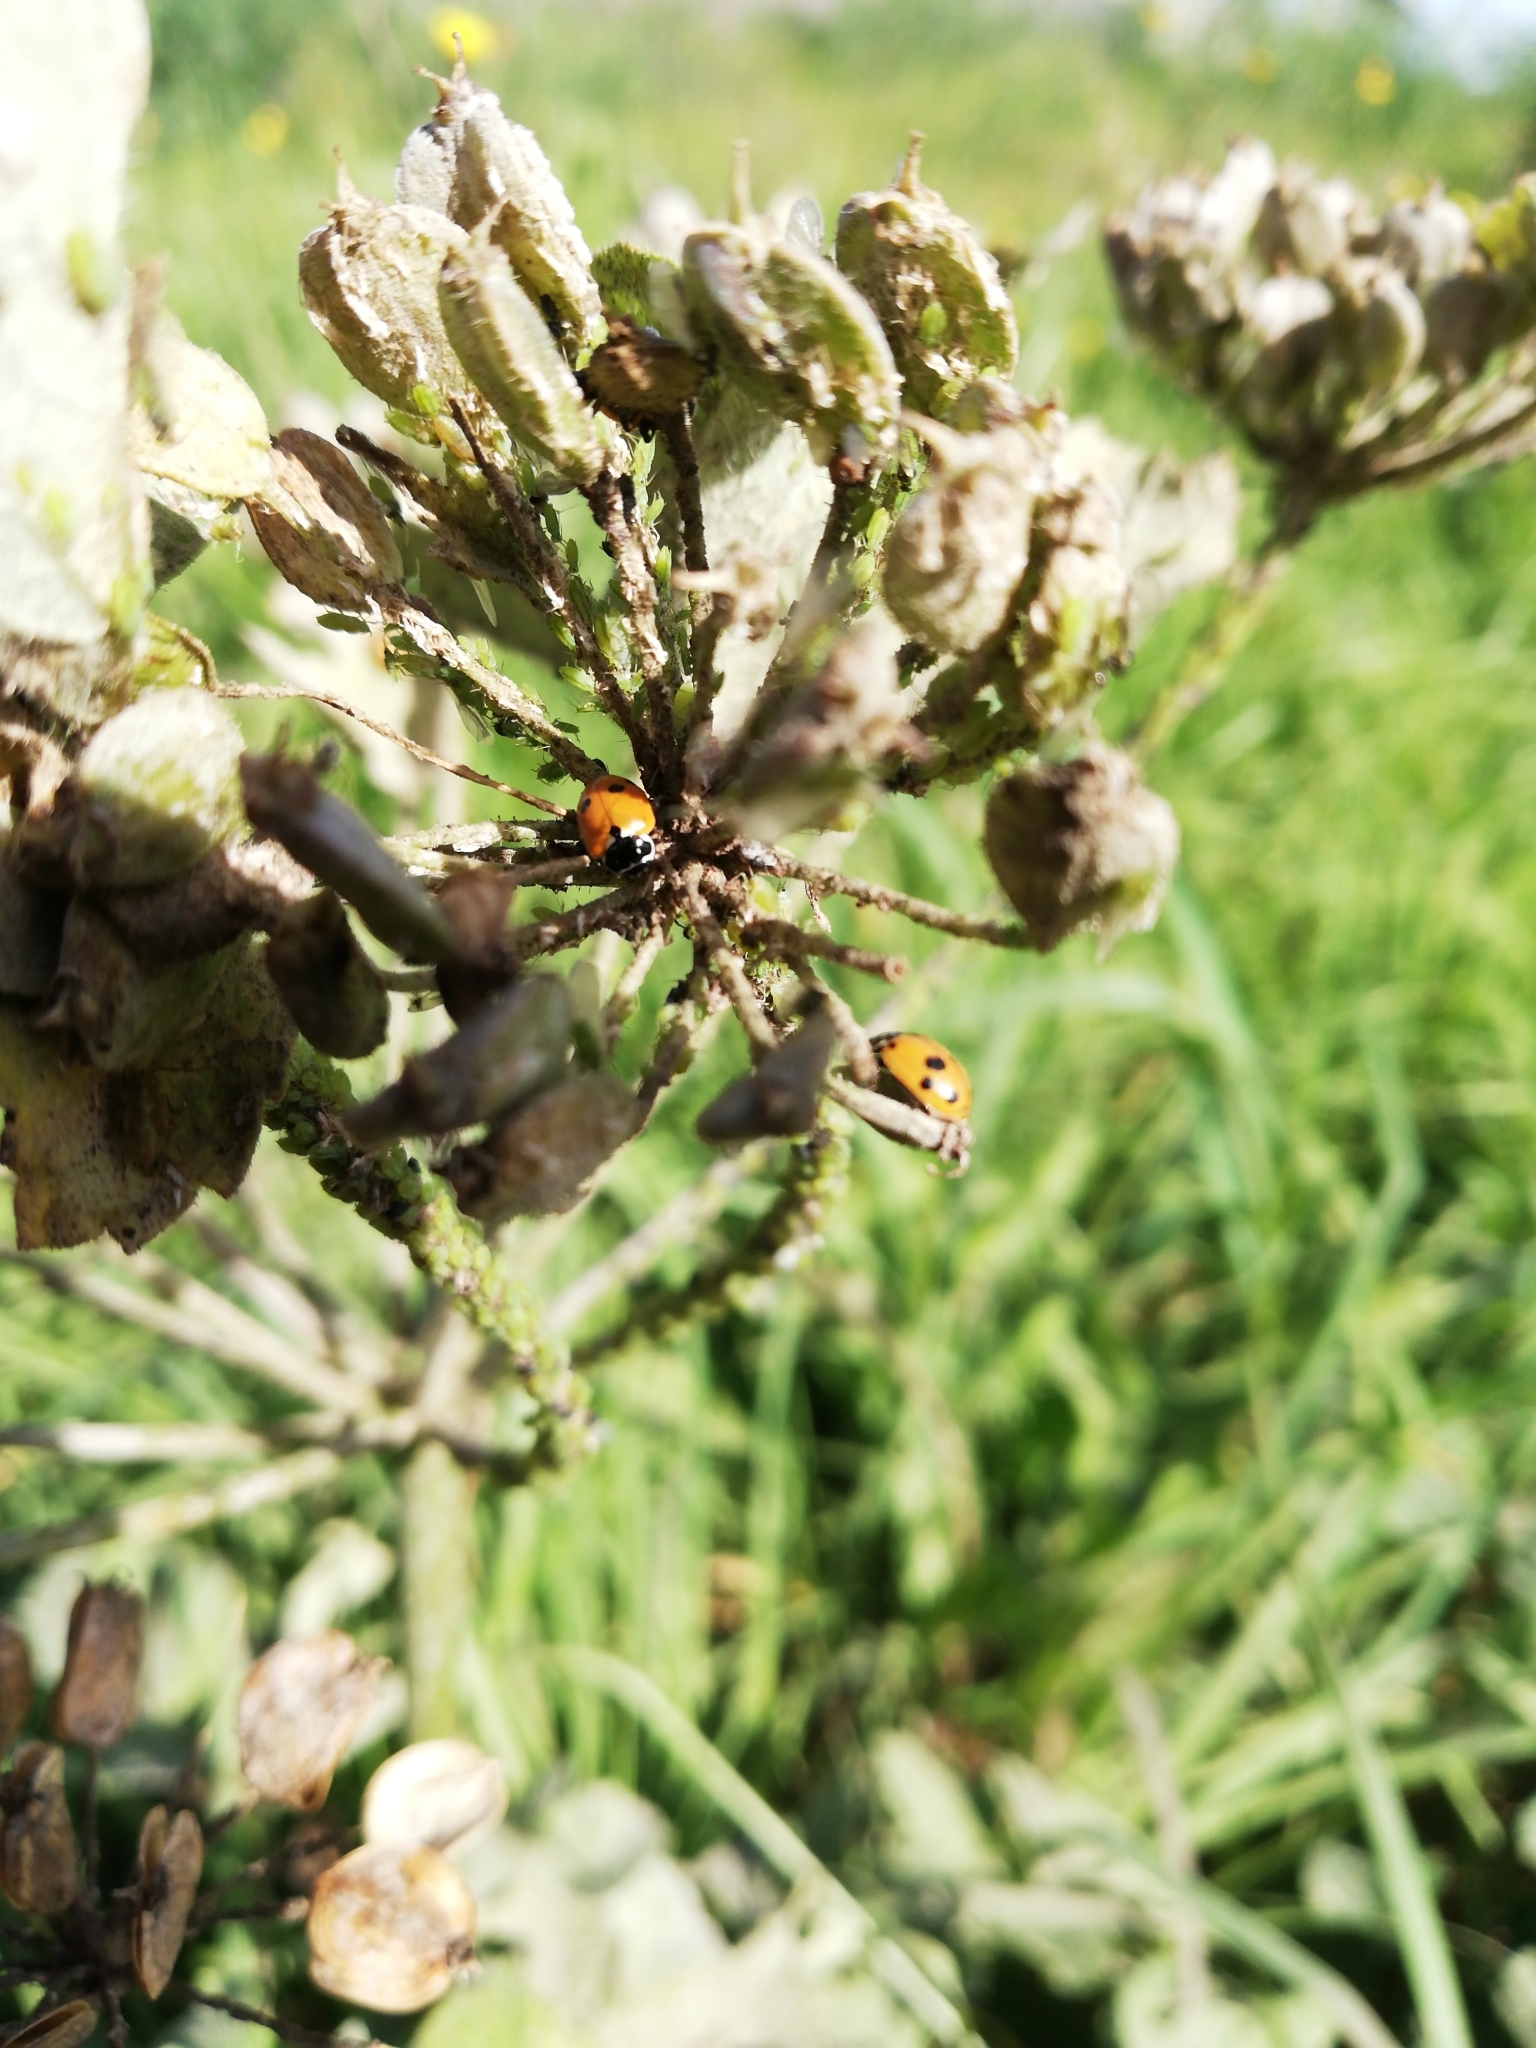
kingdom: Animalia
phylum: Arthropoda
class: Insecta
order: Coleoptera
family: Coccinellidae
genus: Hippodamia
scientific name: Hippodamia variegata
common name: Ladybird beetle
